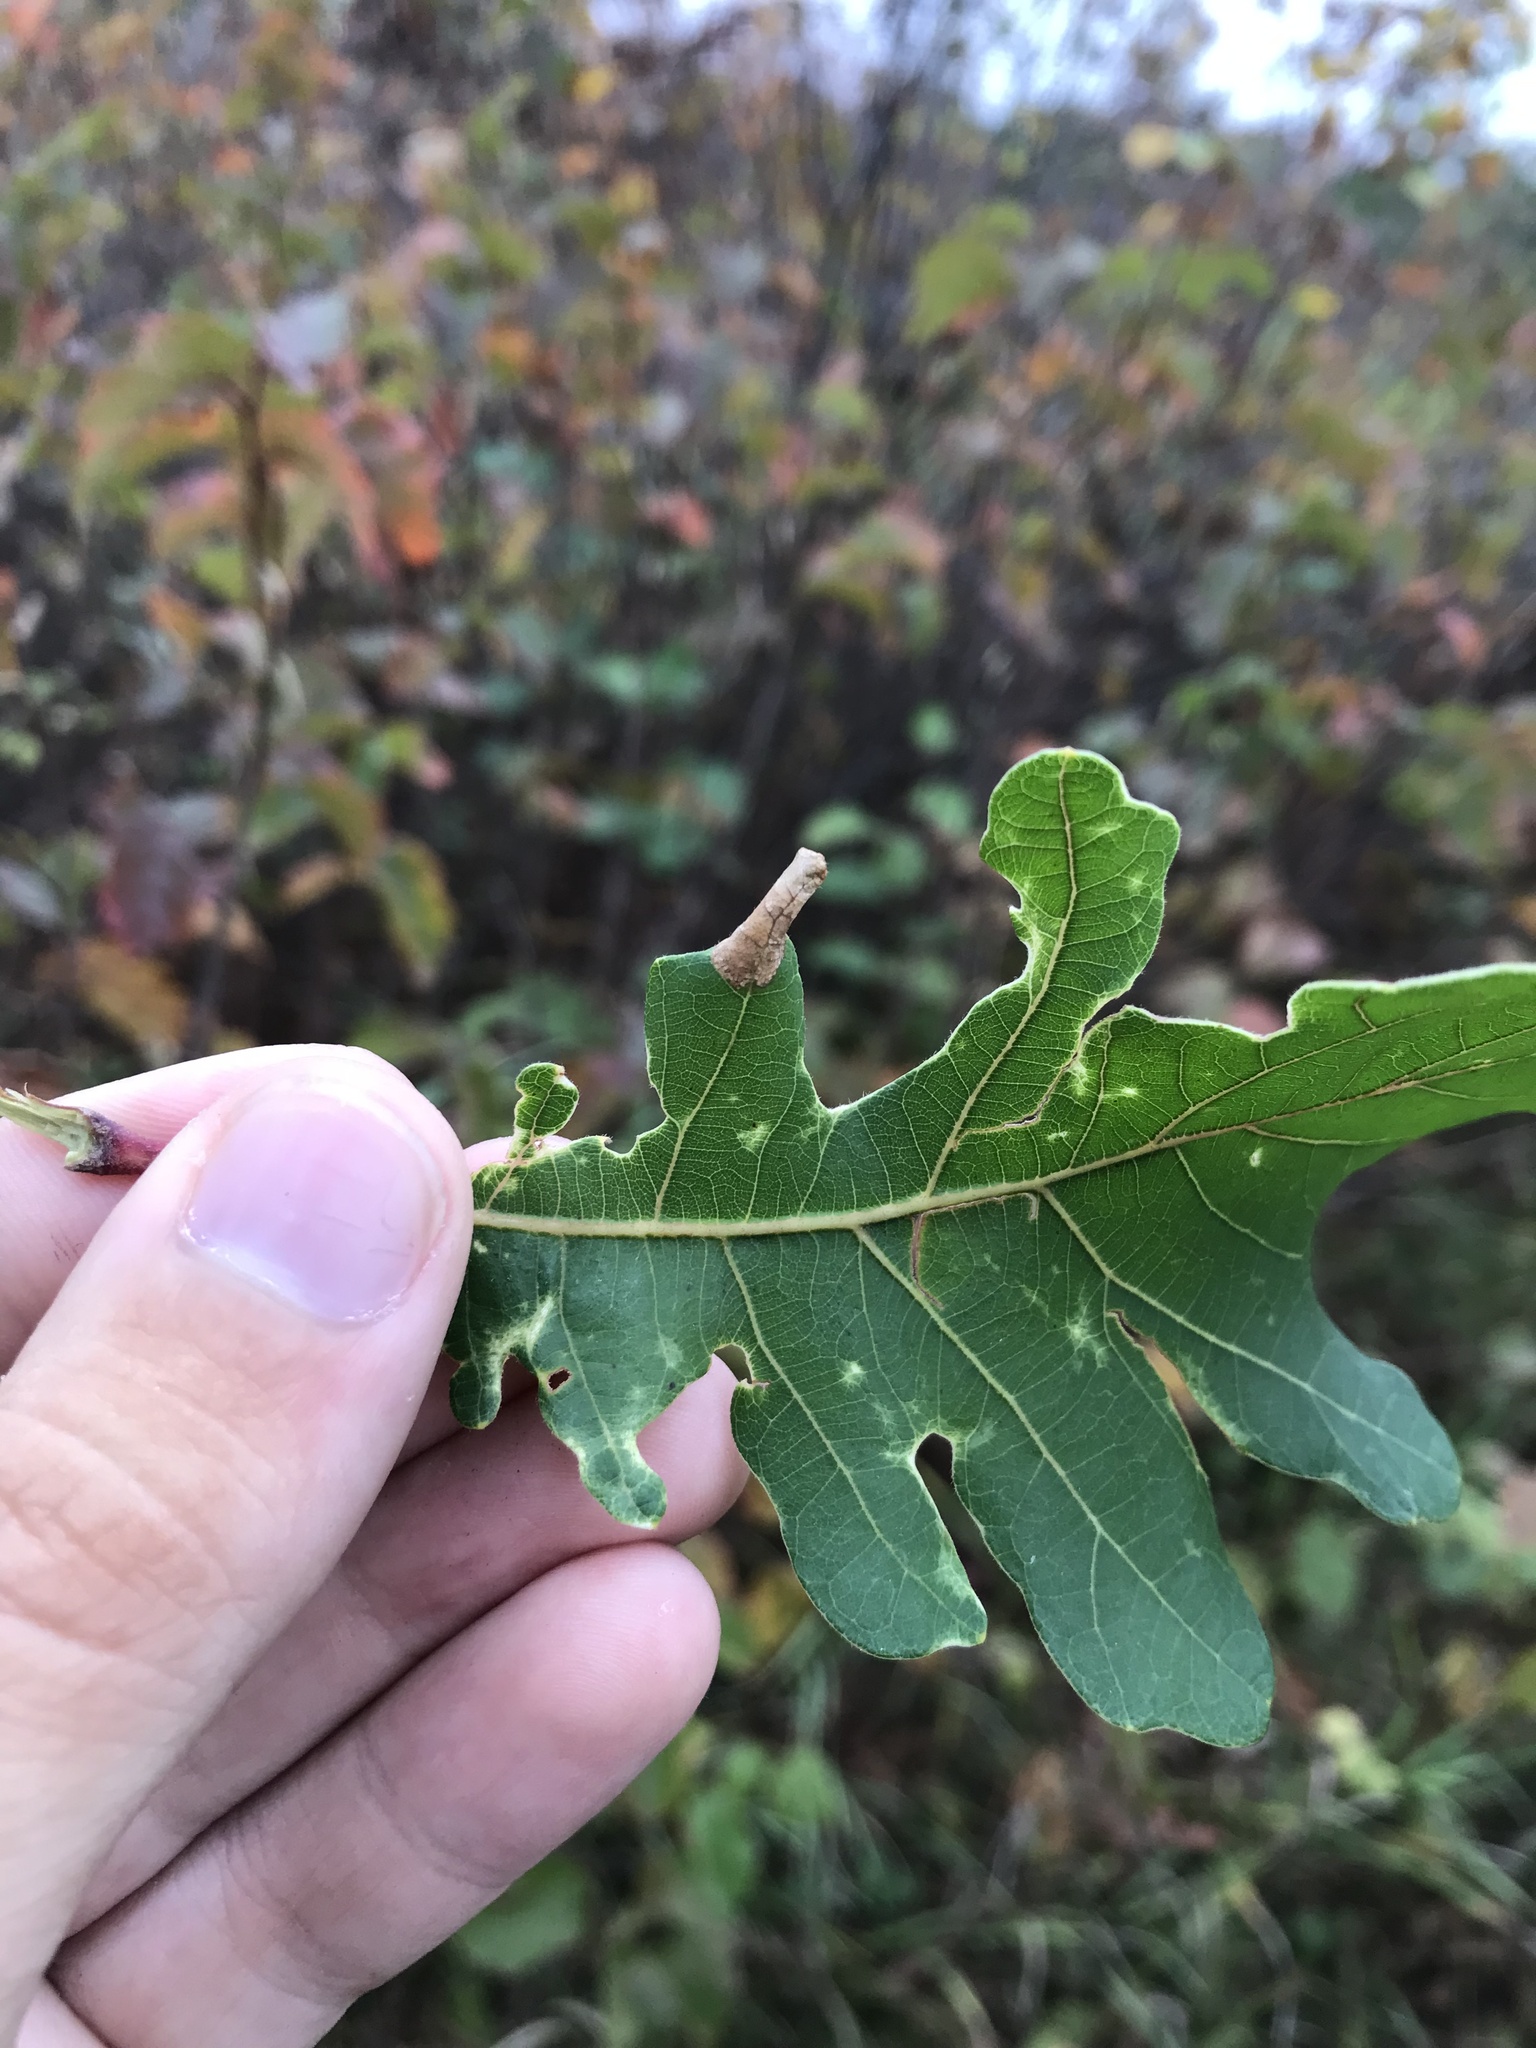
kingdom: Animalia
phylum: Arthropoda
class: Insecta
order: Lepidoptera
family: Gracillariidae
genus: Phyllonorycter
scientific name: Phyllonorycter bataviella
